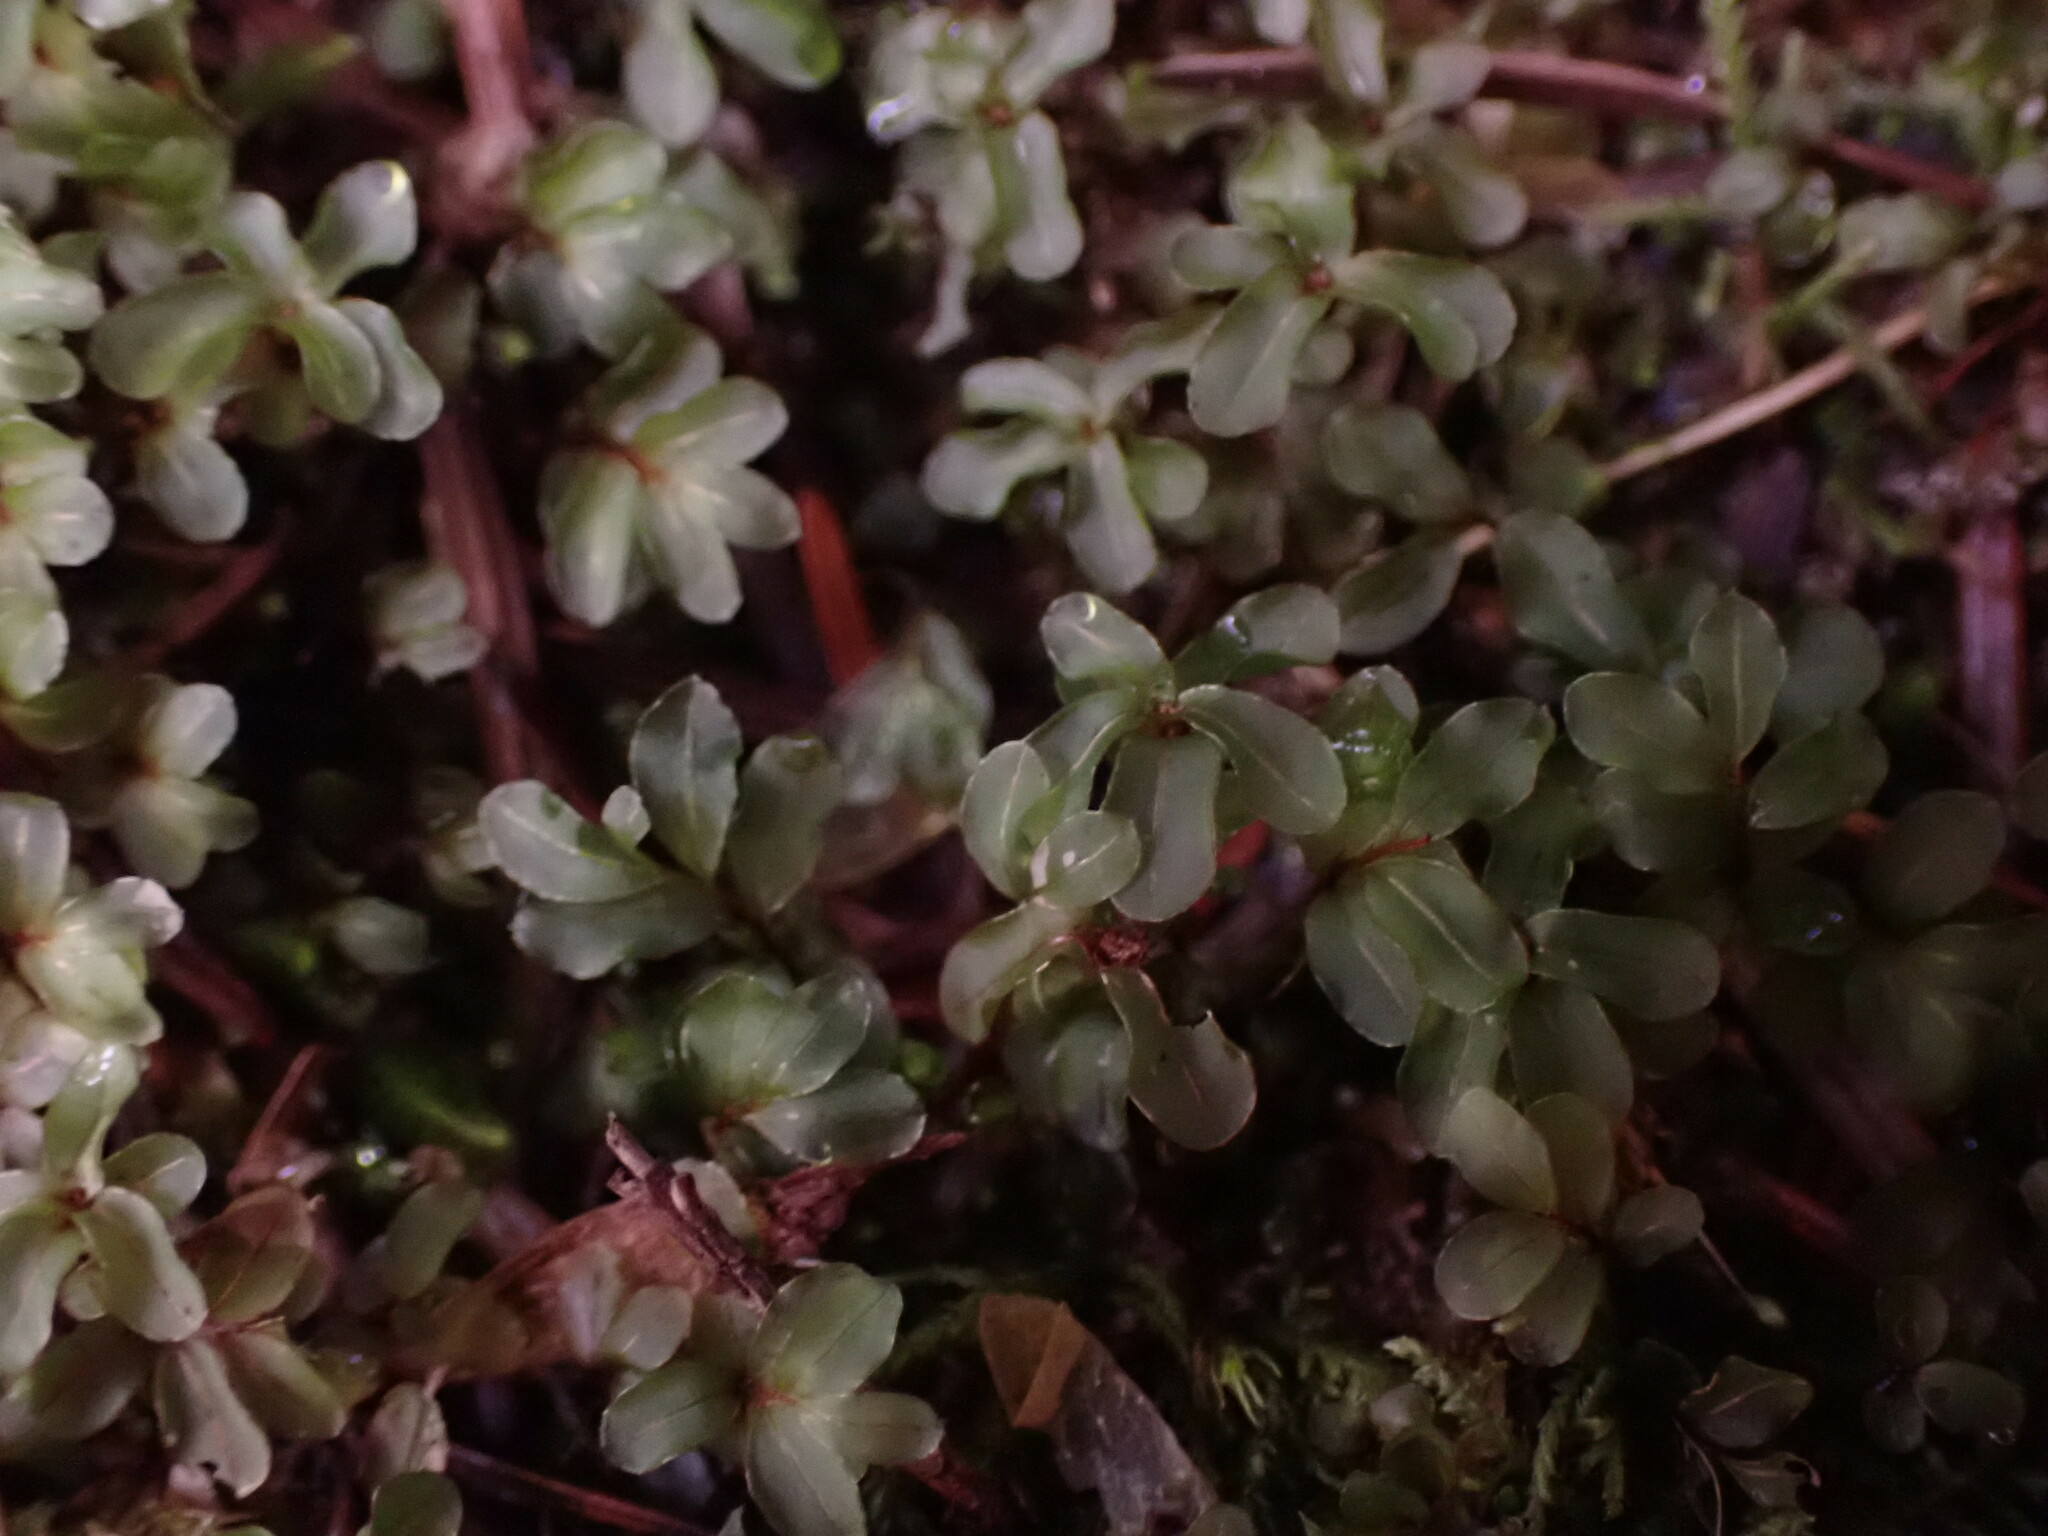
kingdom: Plantae
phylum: Bryophyta
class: Bryopsida
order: Bryales
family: Mniaceae
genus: Rhizomnium
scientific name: Rhizomnium glabrescens
